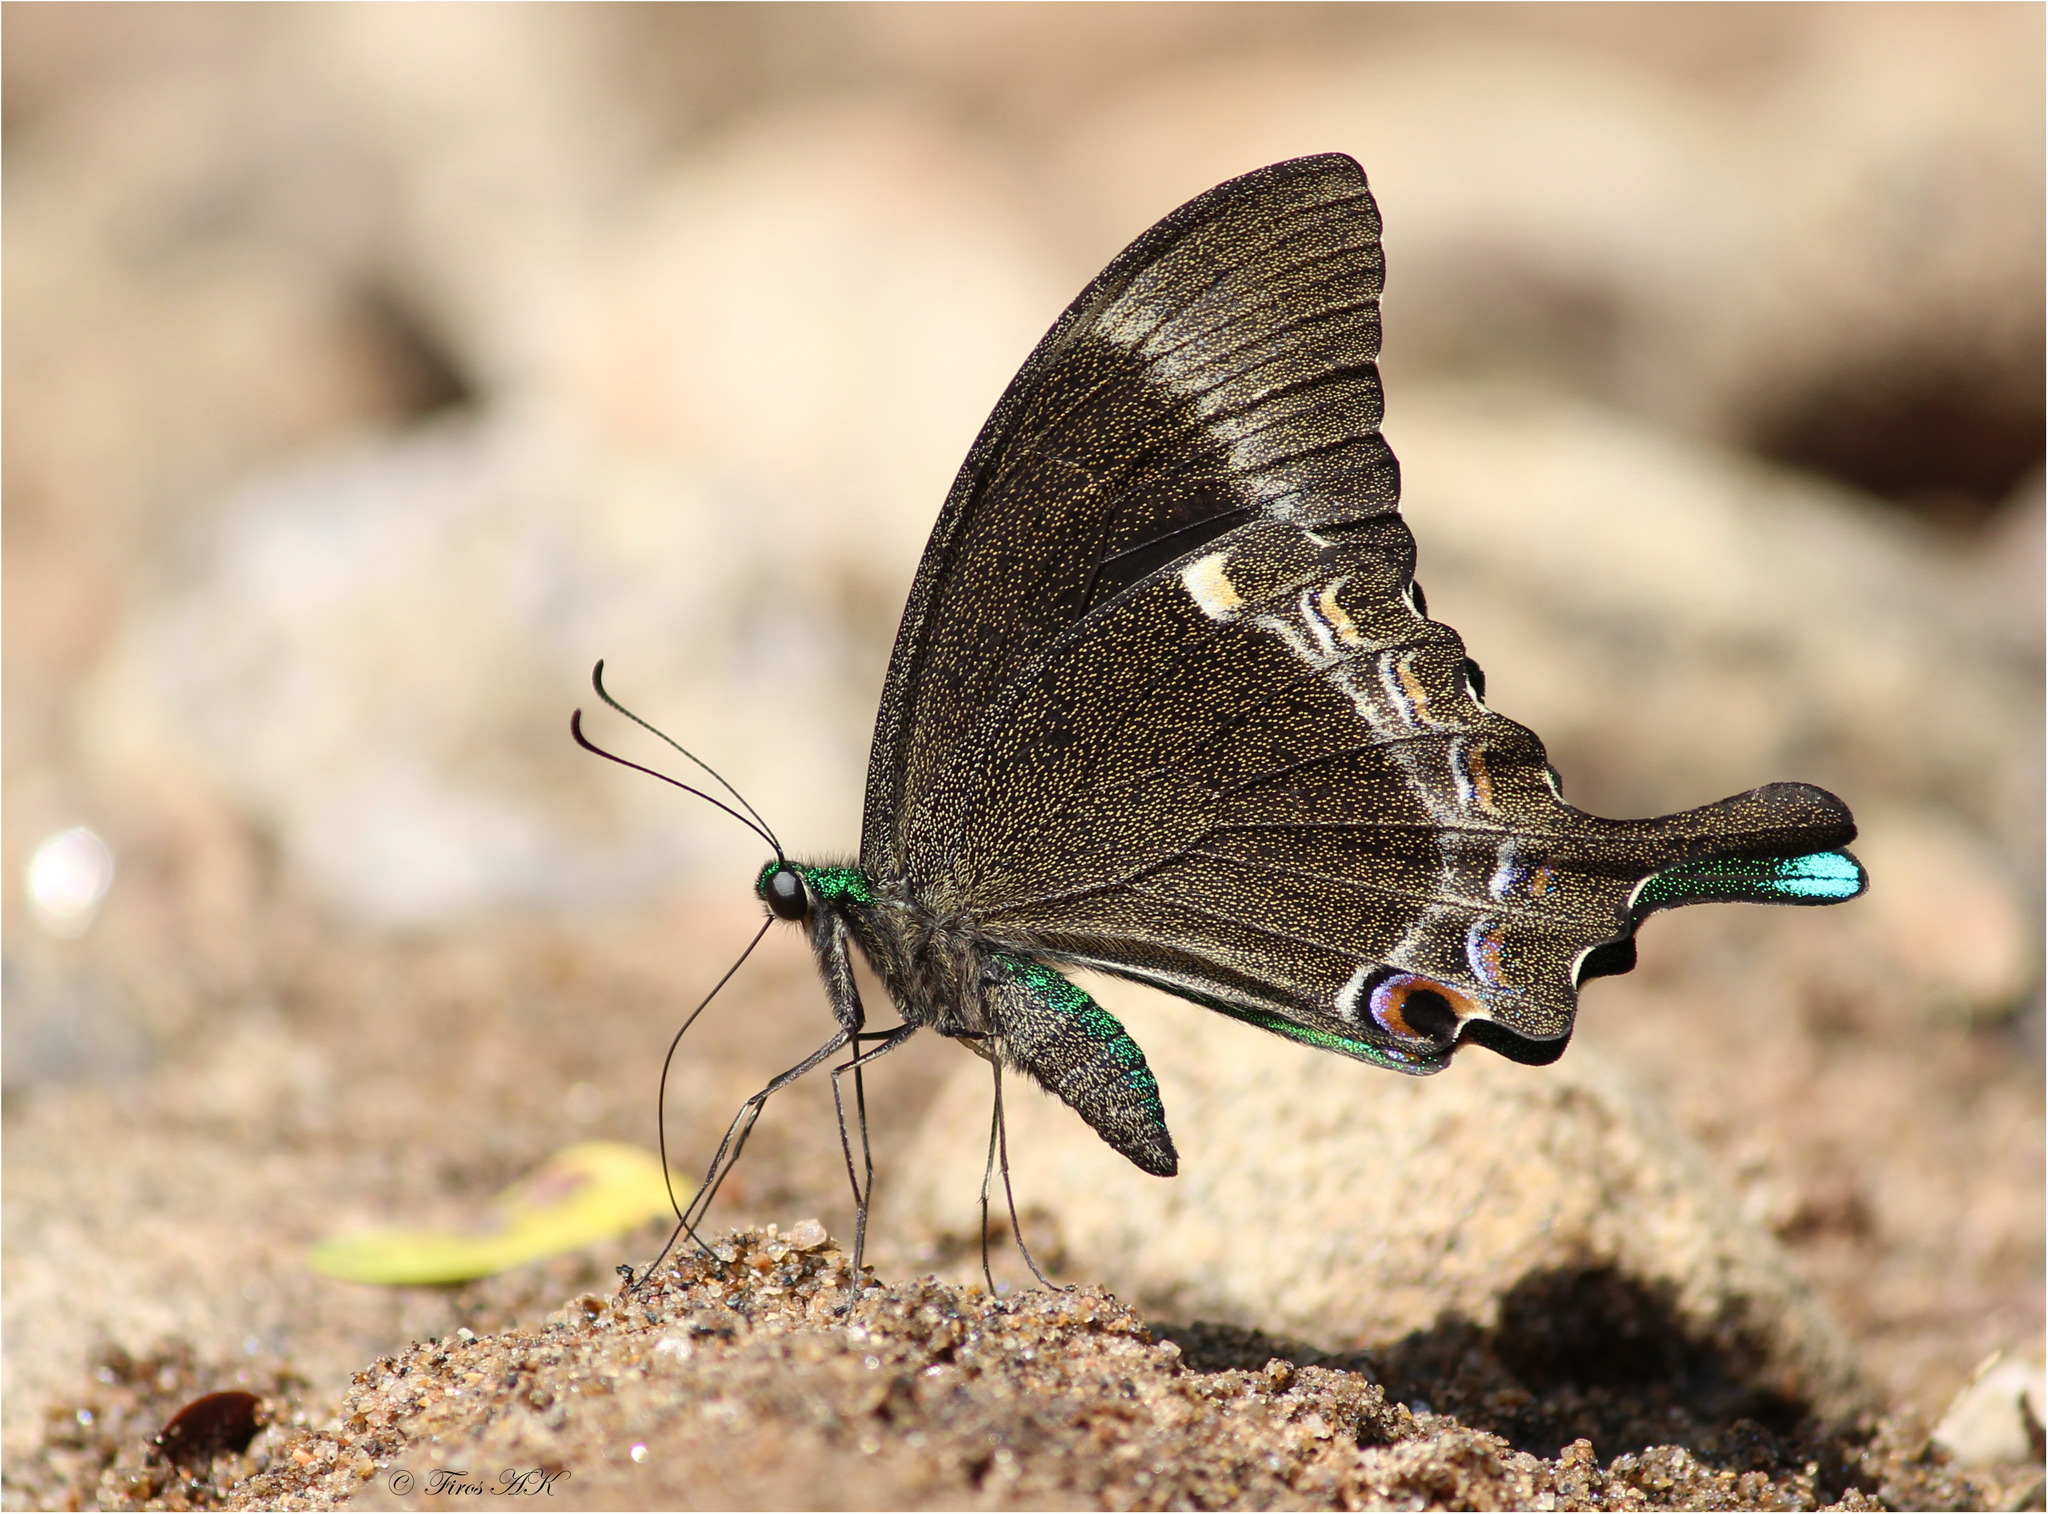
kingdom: Animalia
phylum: Arthropoda
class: Insecta
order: Lepidoptera
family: Papilionidae
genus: Papilio
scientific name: Papilio crino
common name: Common banded peacock
